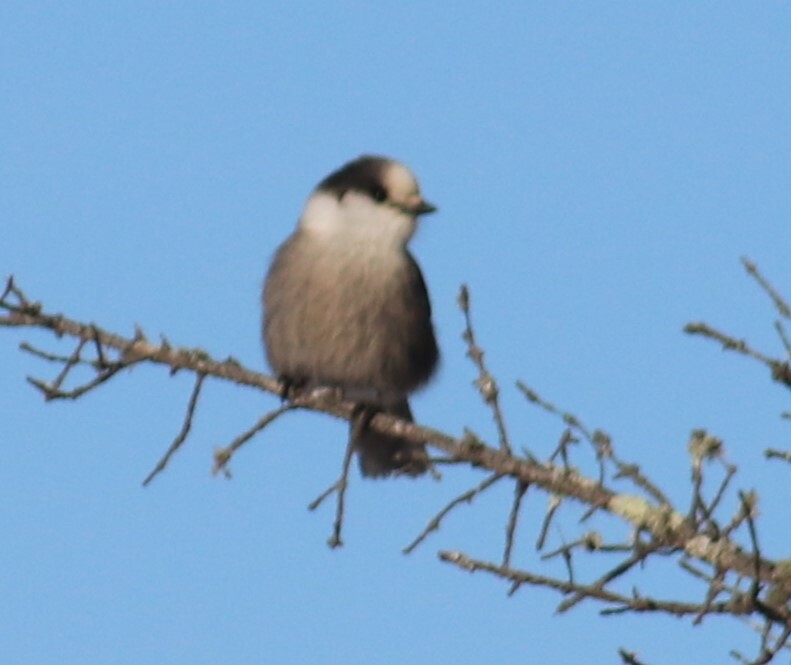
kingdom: Animalia
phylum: Chordata
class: Aves
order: Passeriformes
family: Corvidae
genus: Perisoreus
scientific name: Perisoreus canadensis
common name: Gray jay
